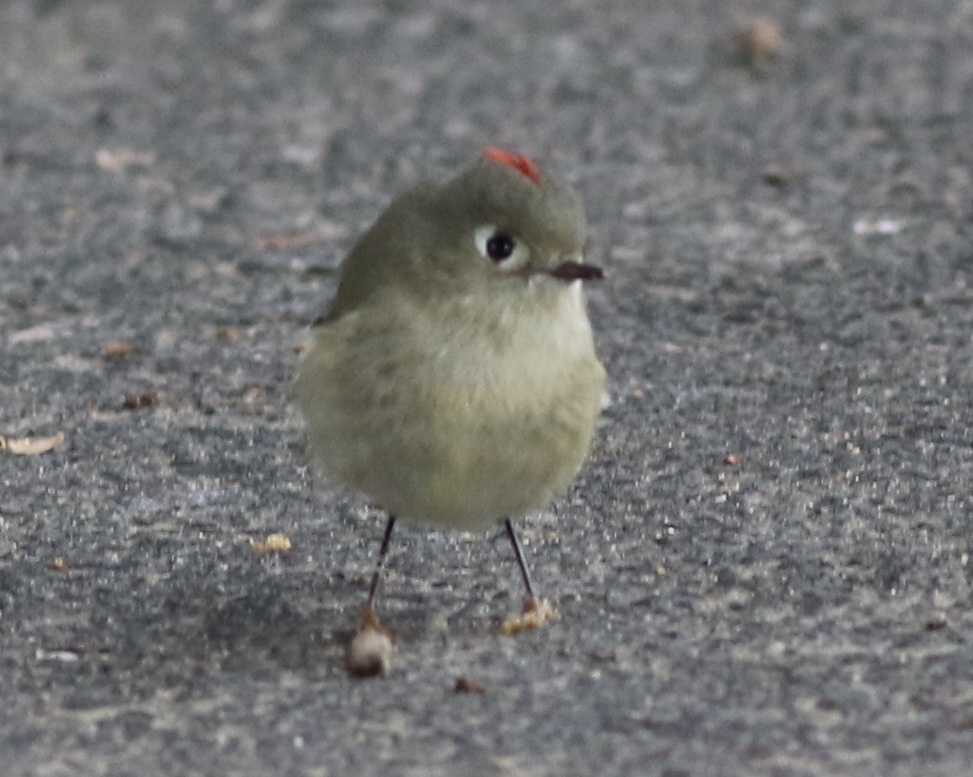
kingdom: Animalia
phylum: Chordata
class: Aves
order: Passeriformes
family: Regulidae
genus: Regulus
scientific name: Regulus calendula
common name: Ruby-crowned kinglet
